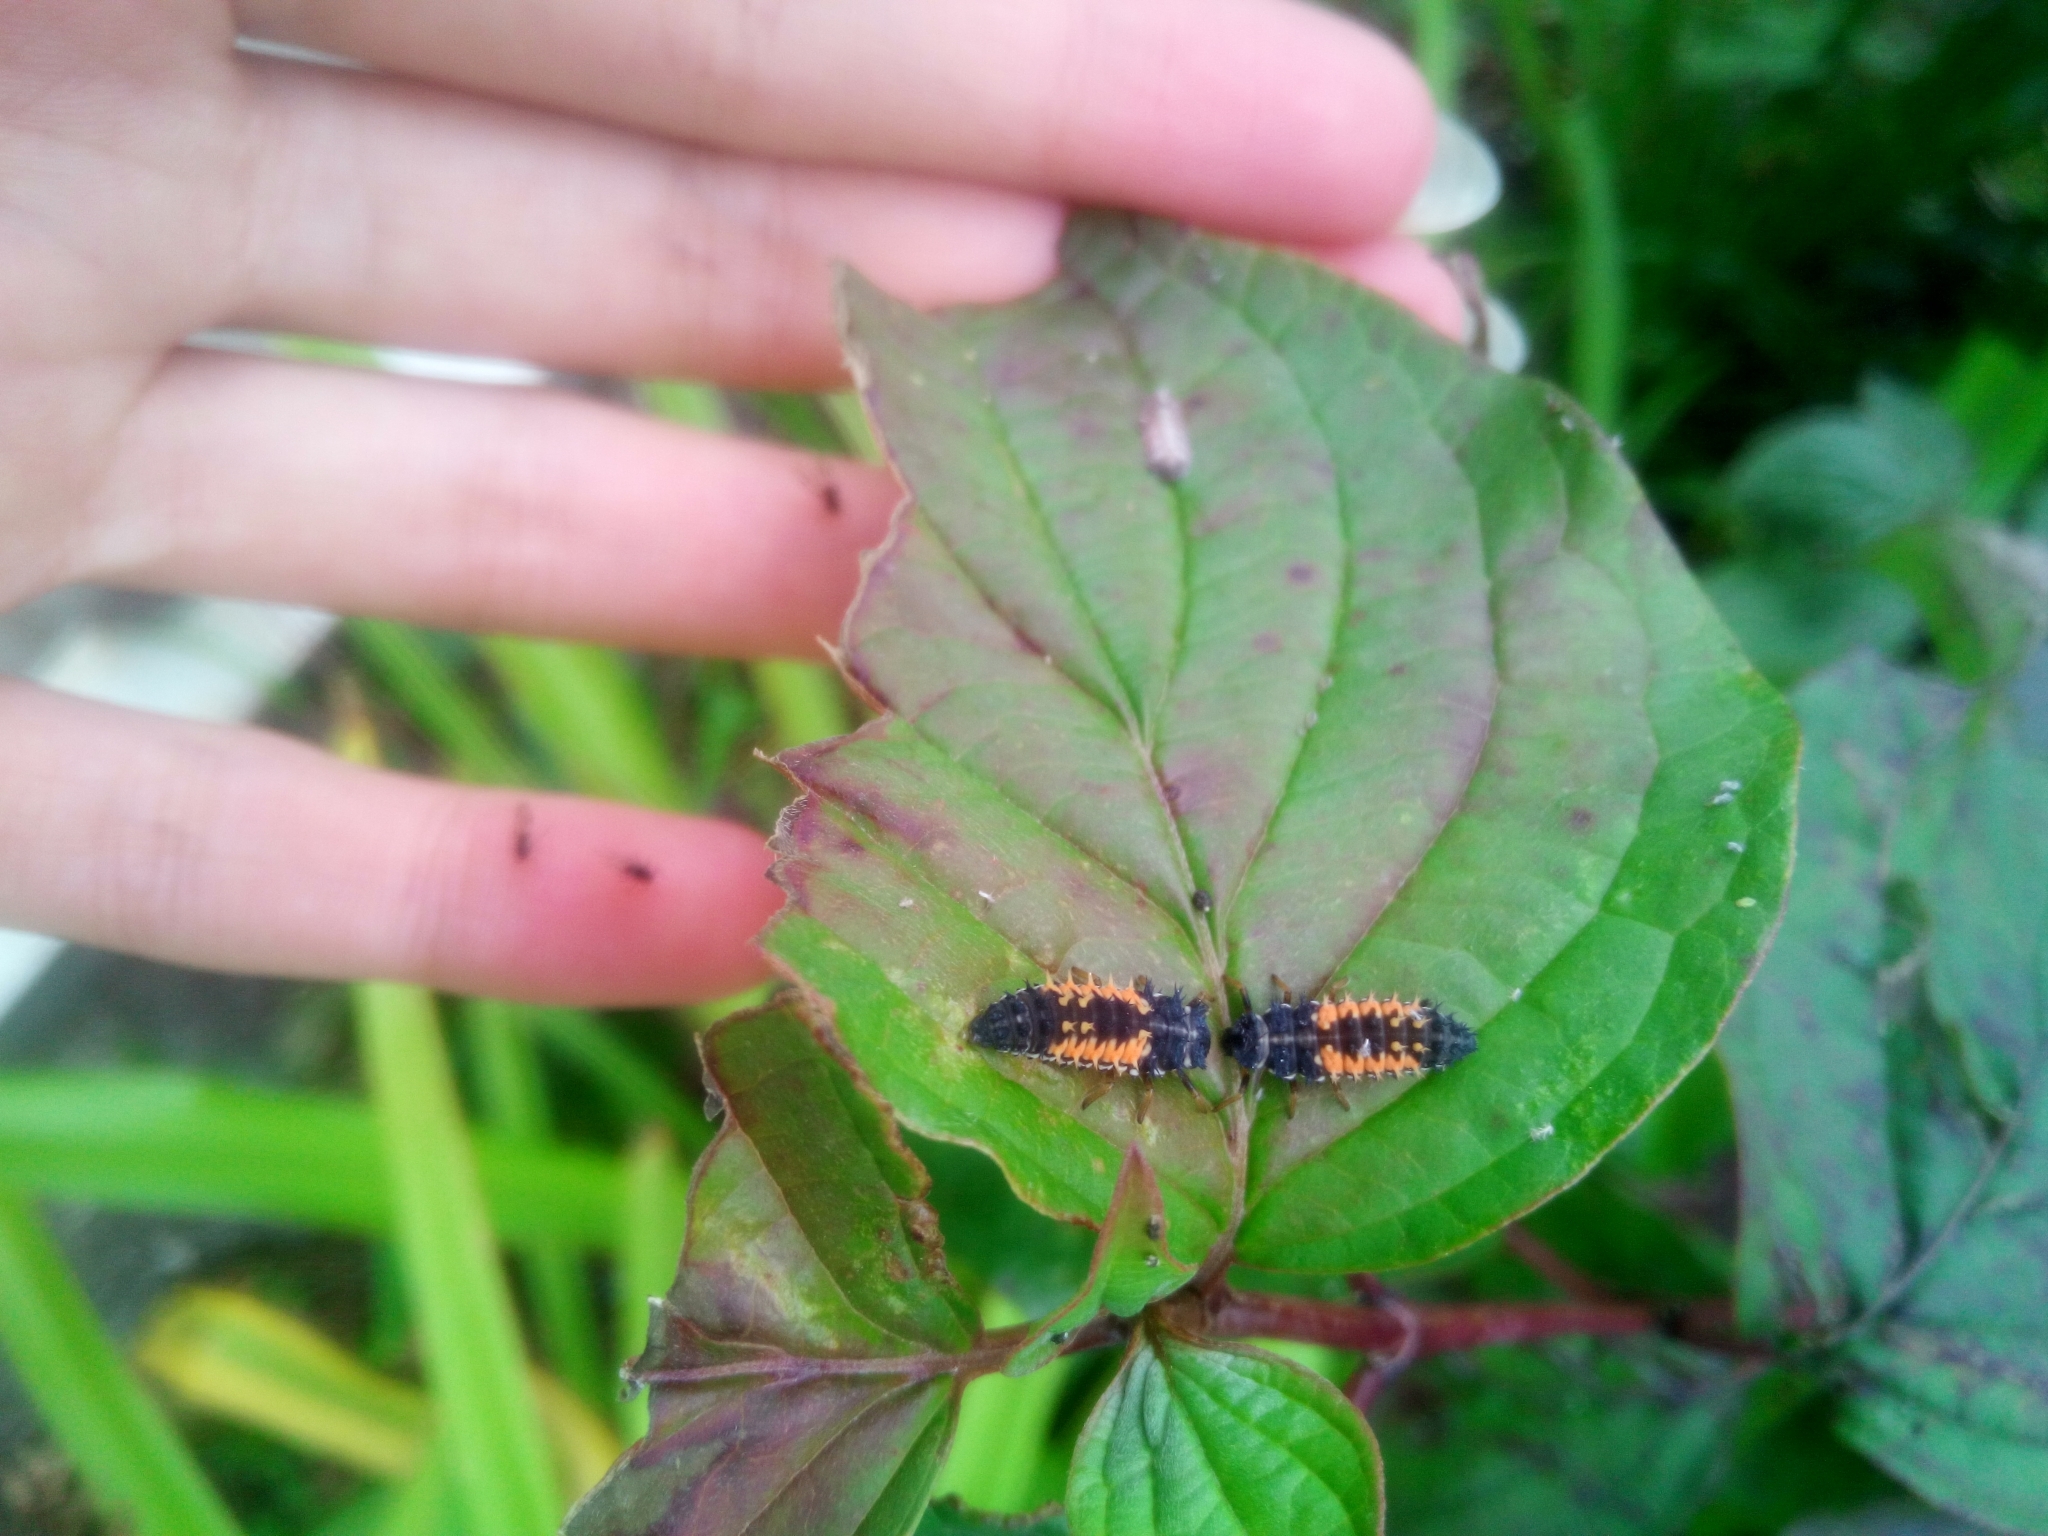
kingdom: Animalia
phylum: Arthropoda
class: Insecta
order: Coleoptera
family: Coccinellidae
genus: Harmonia
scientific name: Harmonia axyridis
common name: Harlequin ladybird
